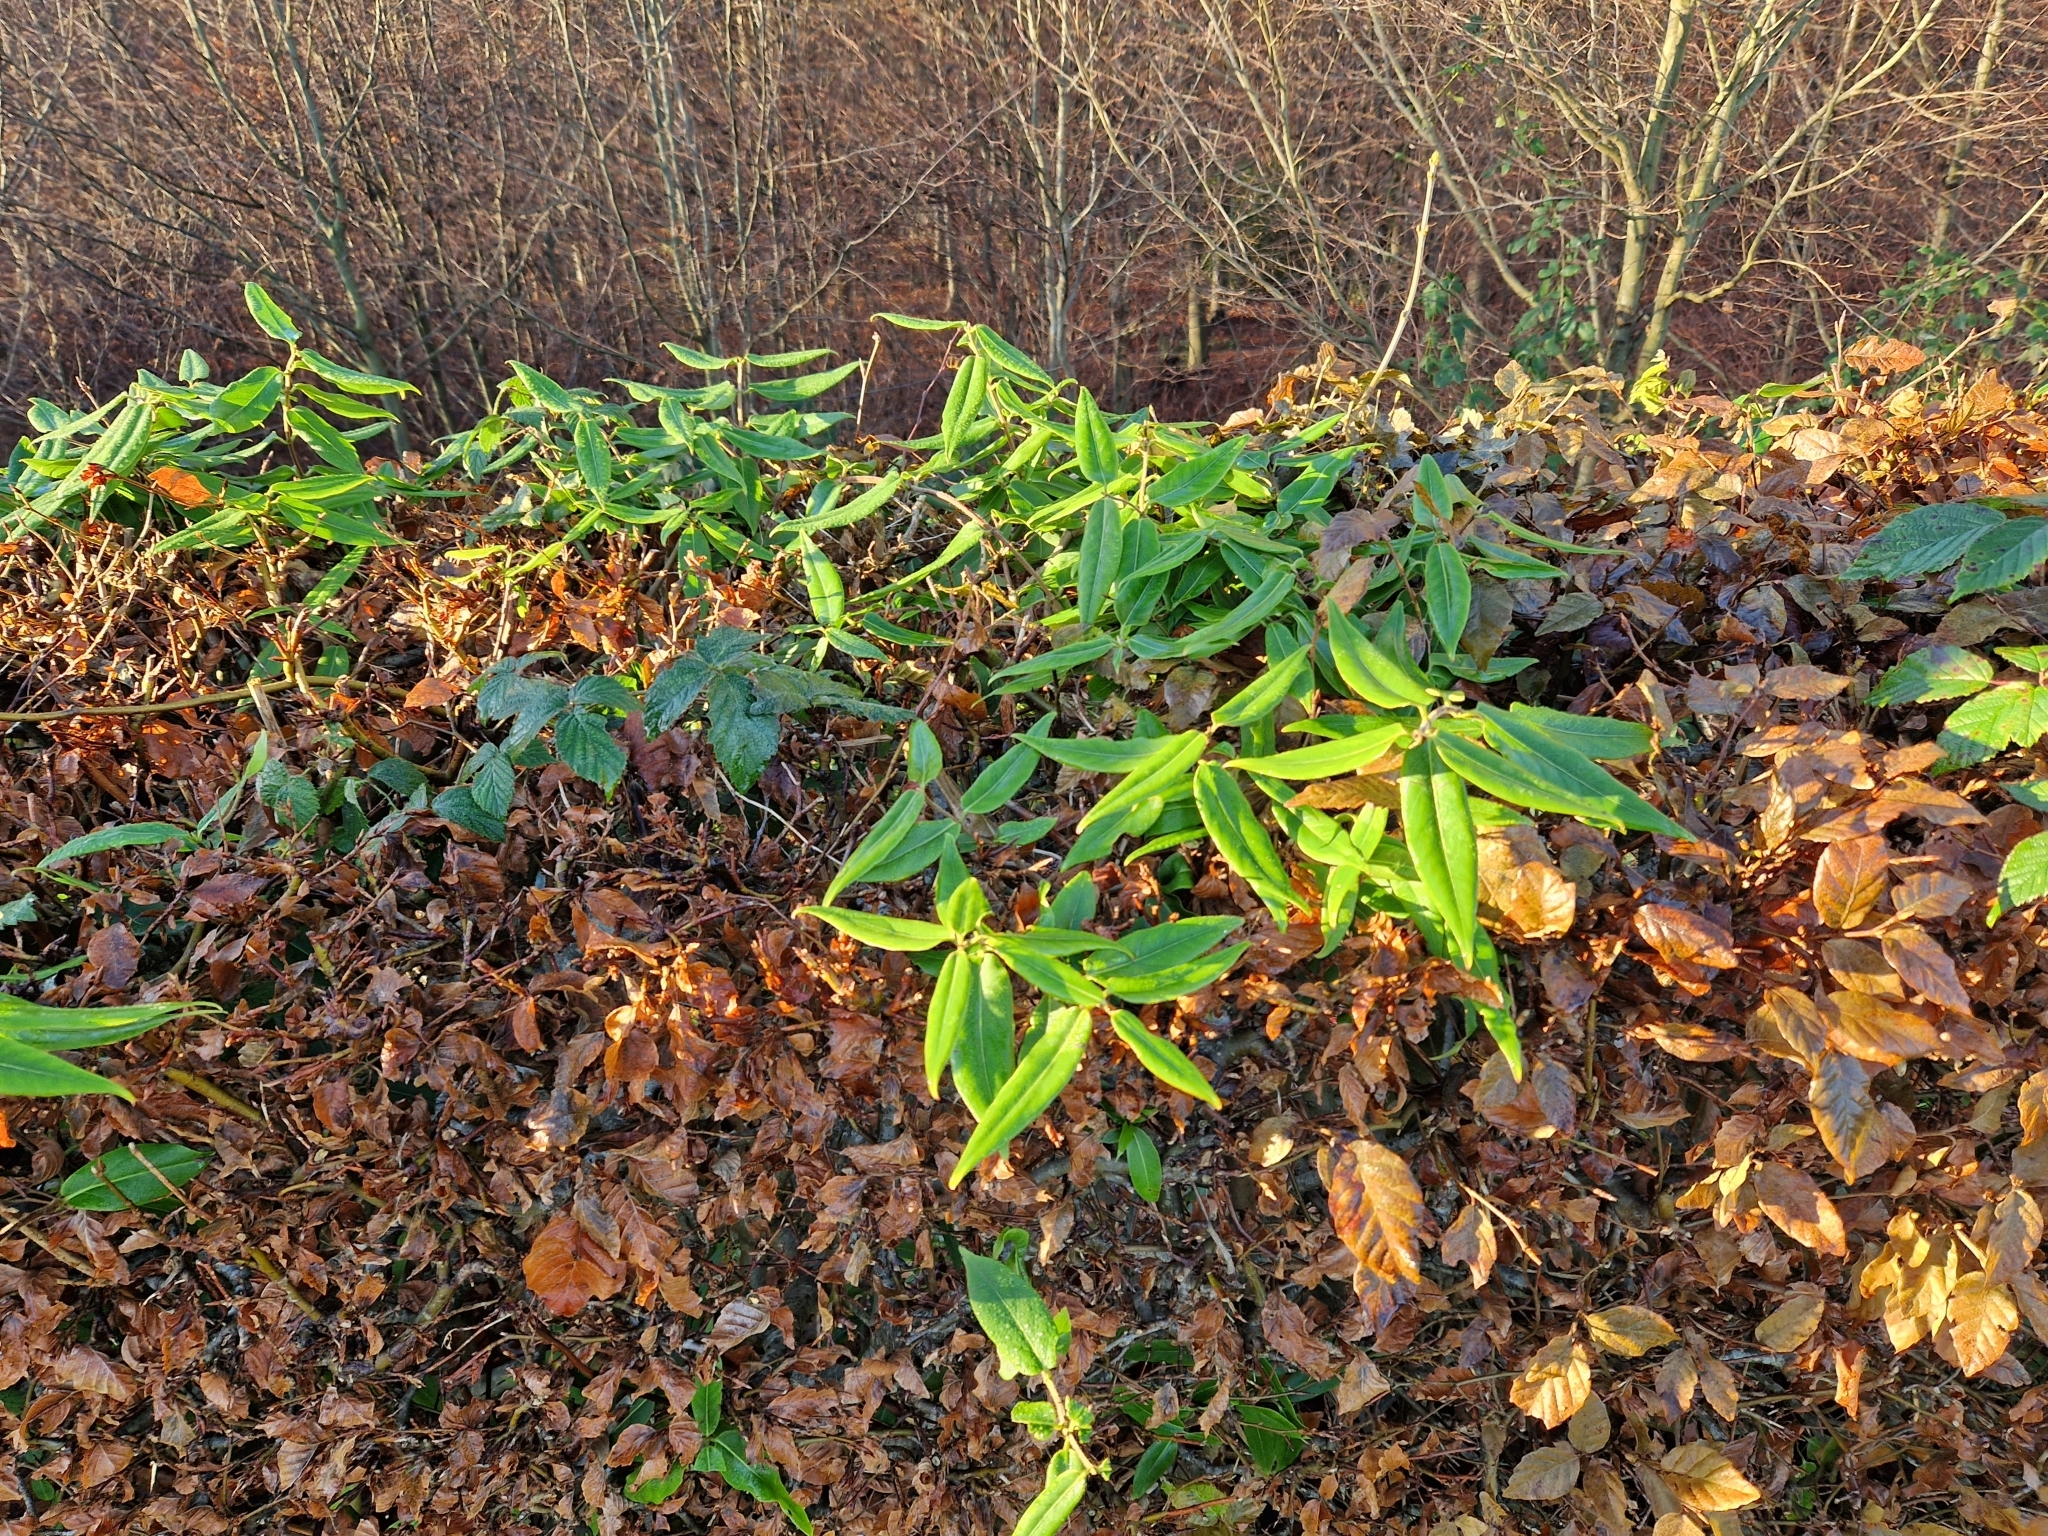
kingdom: Plantae
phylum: Tracheophyta
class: Magnoliopsida
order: Dipsacales
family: Caprifoliaceae
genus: Lonicera
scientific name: Lonicera acuminata
